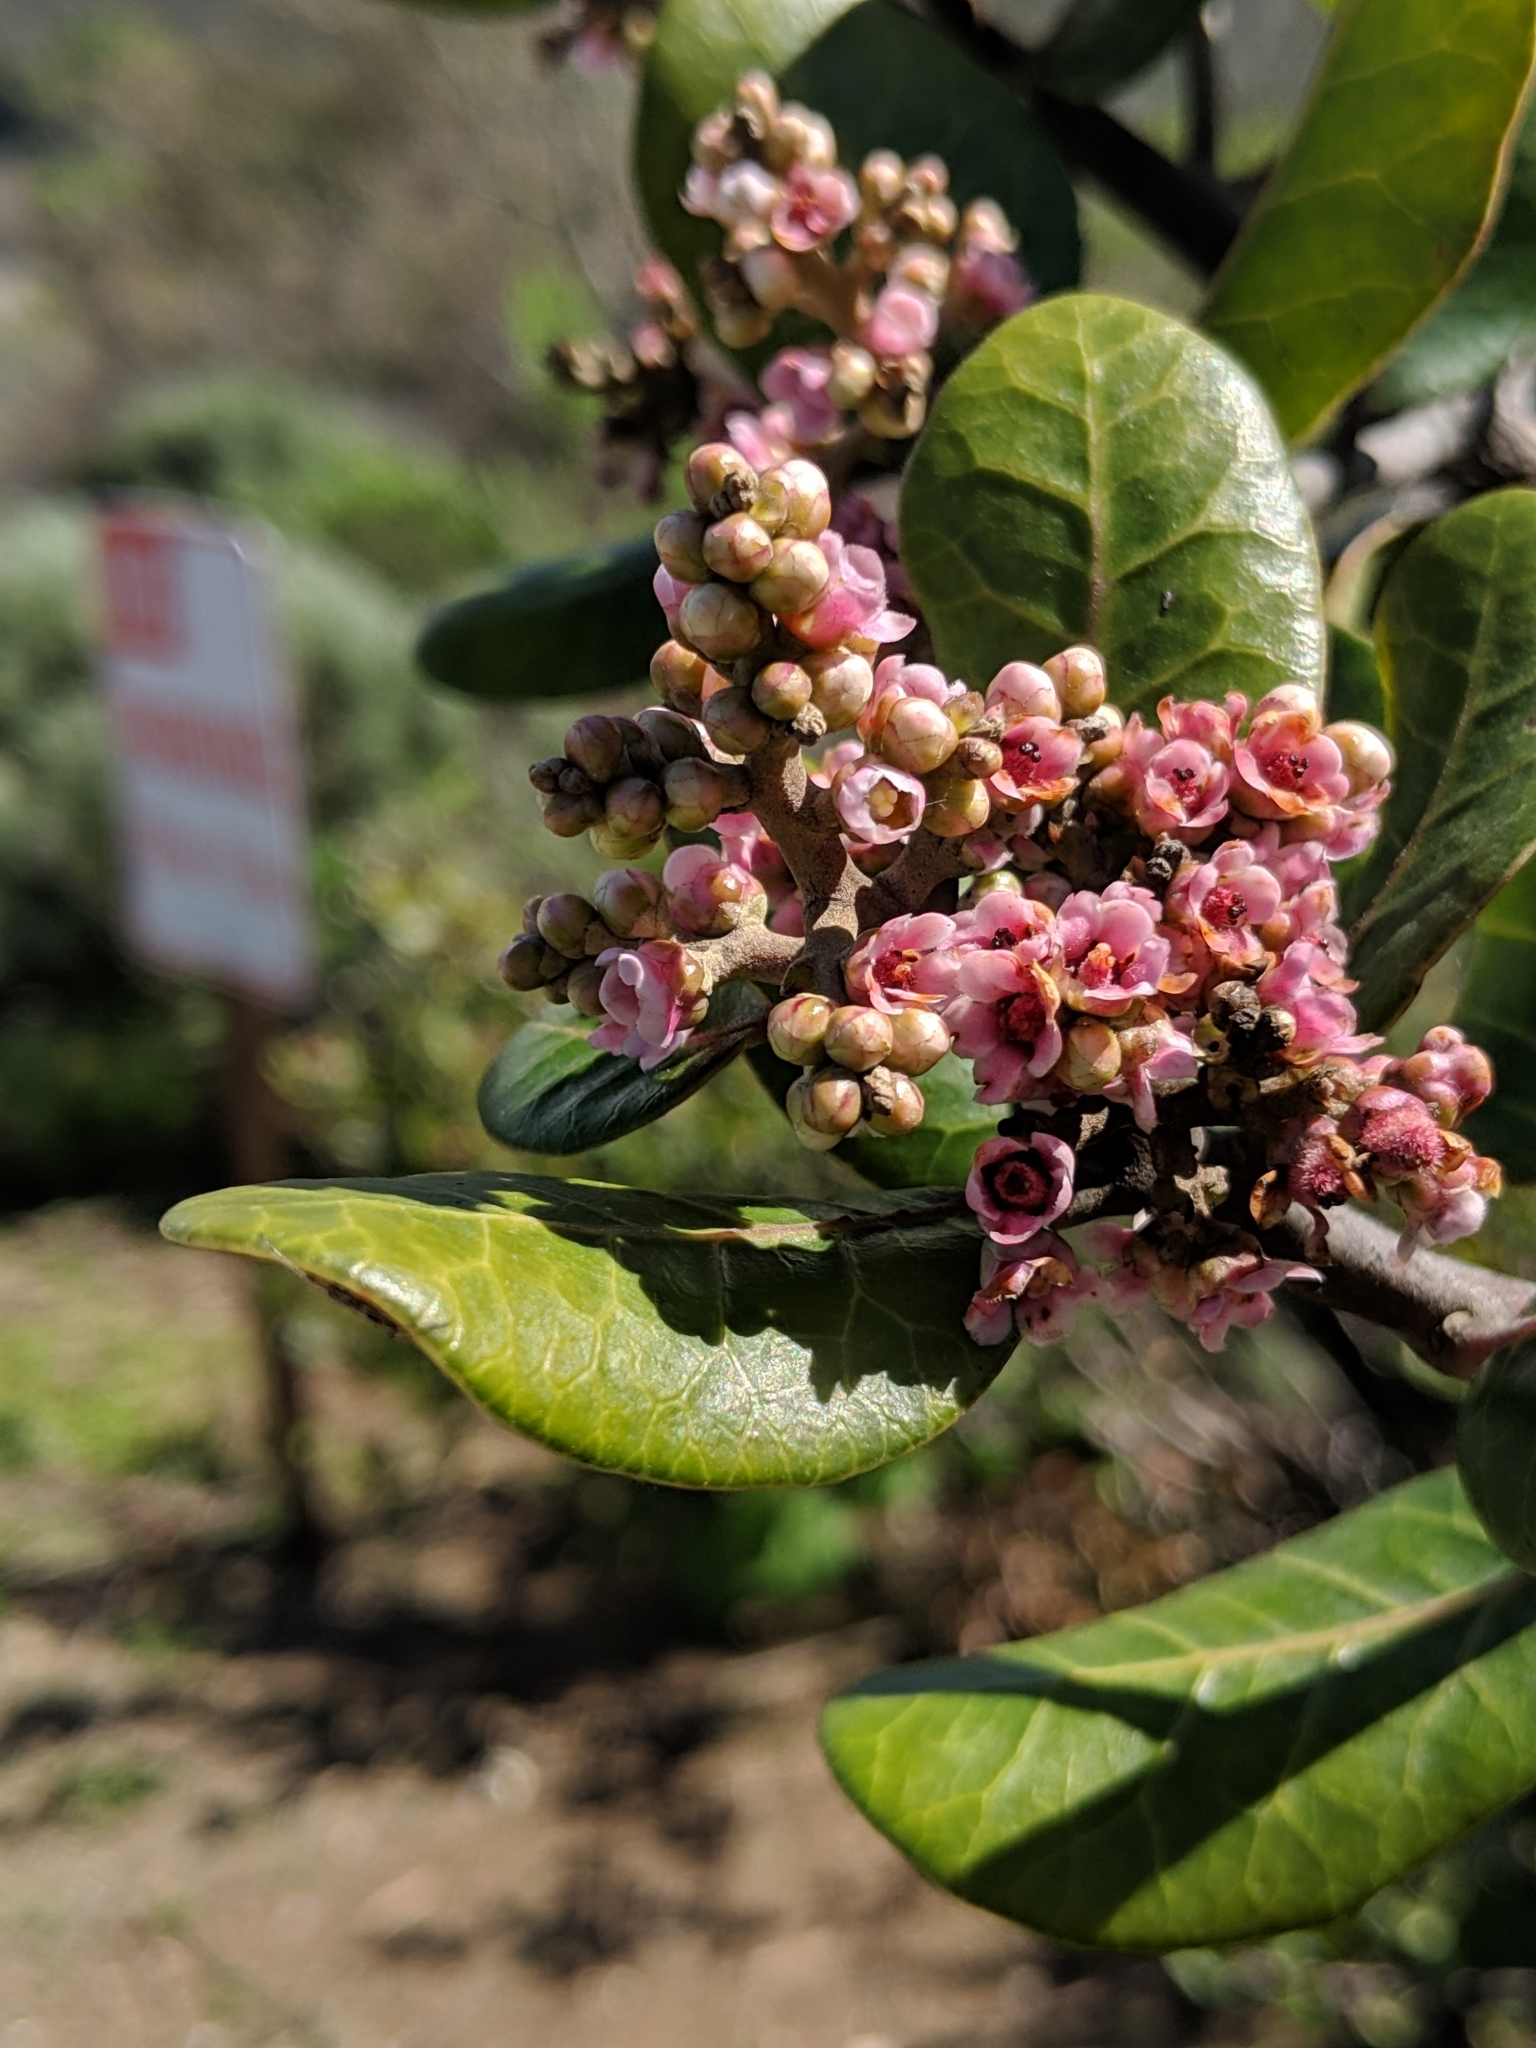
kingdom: Plantae
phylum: Tracheophyta
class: Magnoliopsida
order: Sapindales
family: Anacardiaceae
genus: Rhus
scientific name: Rhus integrifolia
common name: Lemonade sumac
